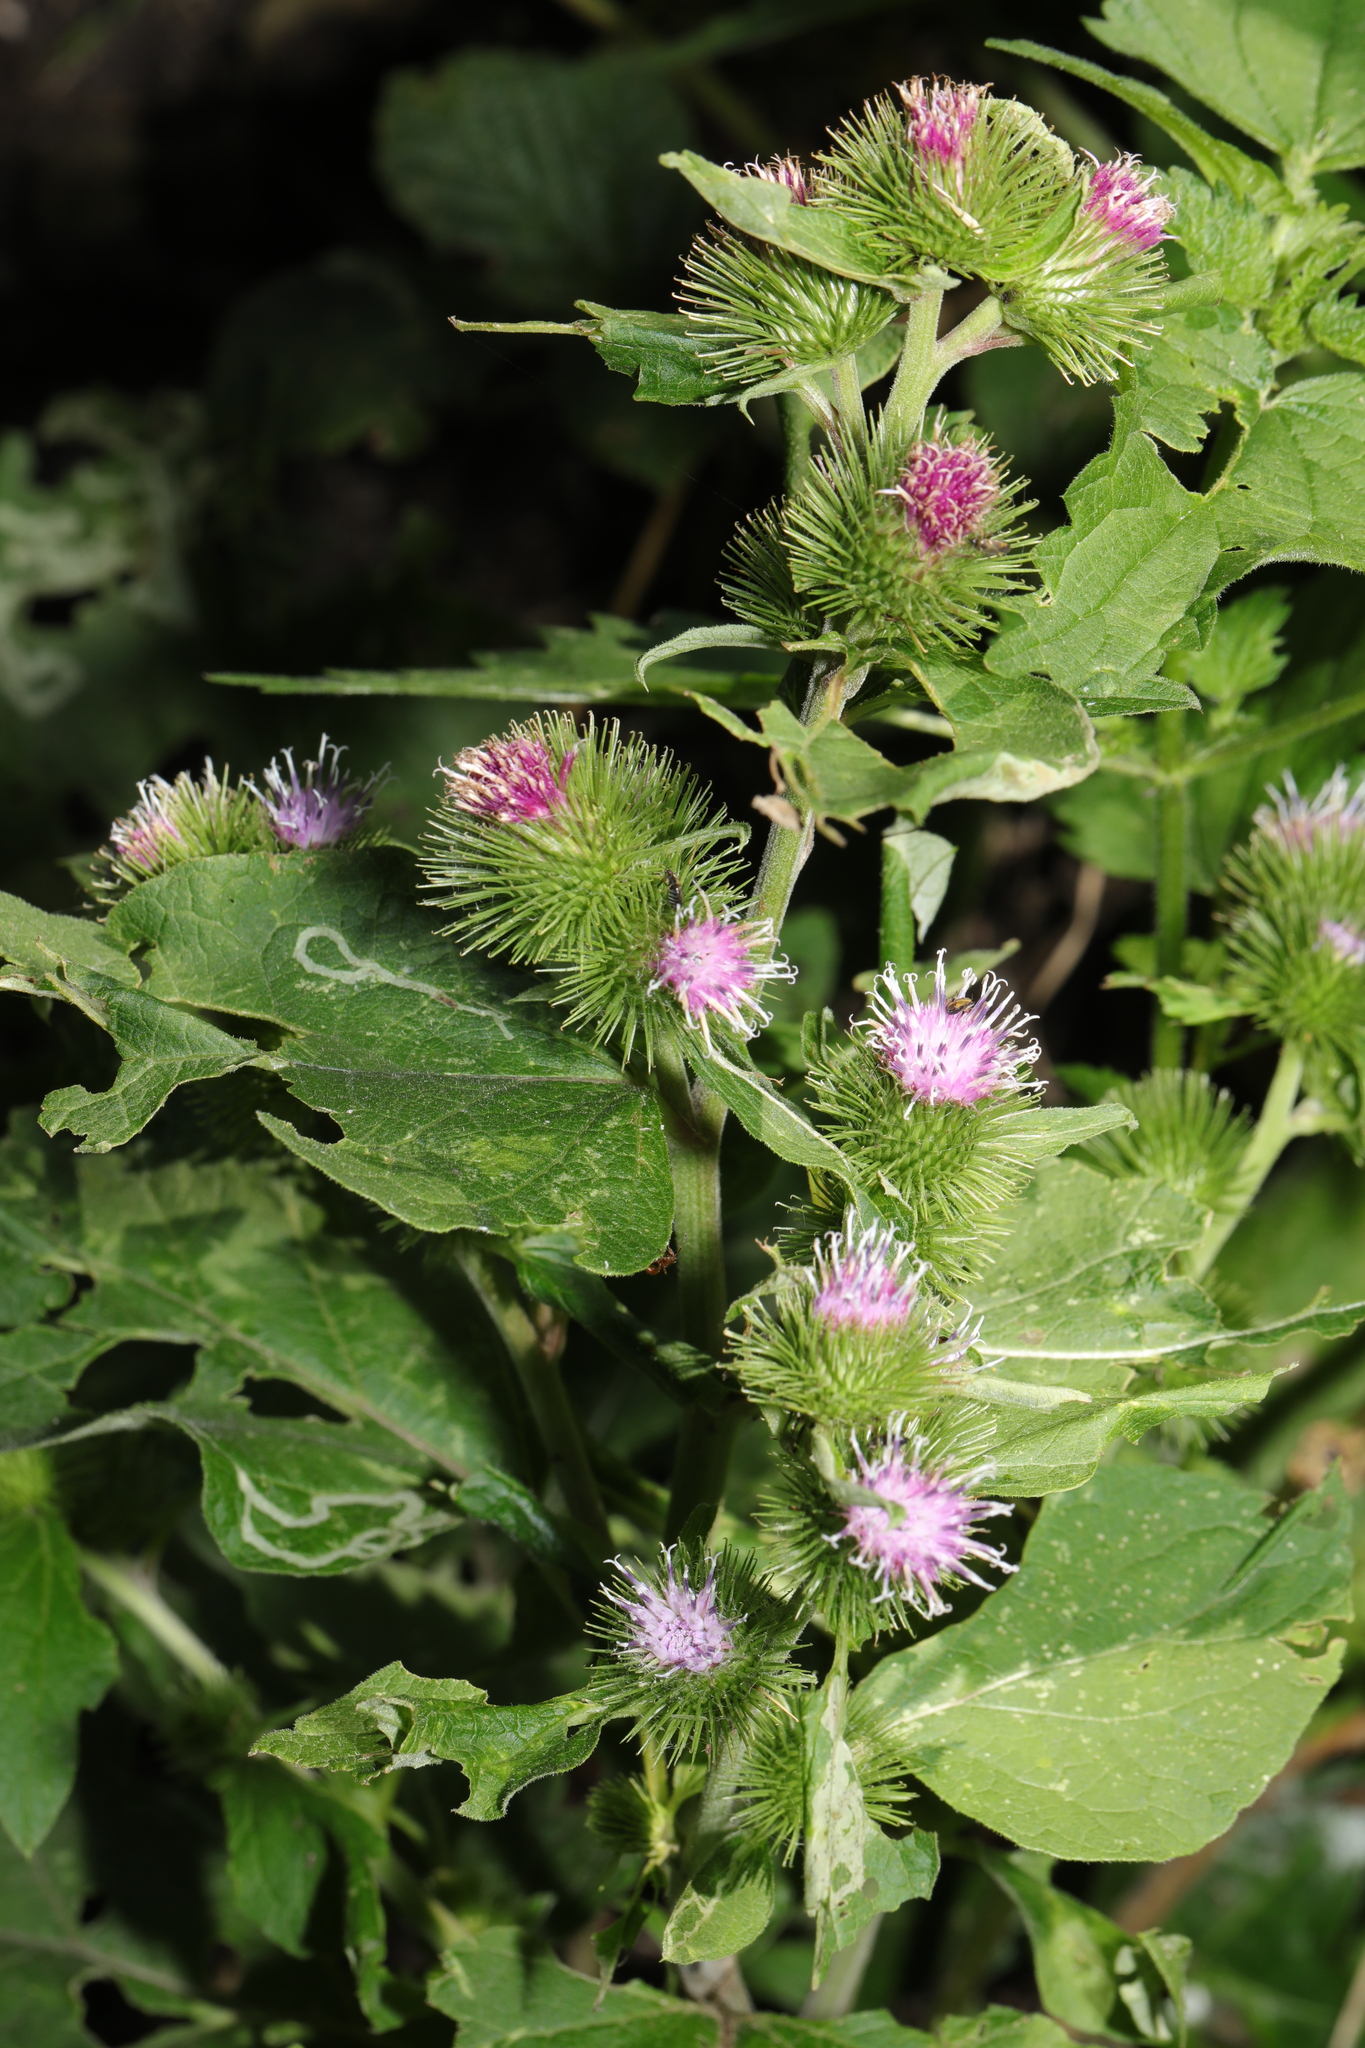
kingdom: Plantae
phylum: Tracheophyta
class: Magnoliopsida
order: Asterales
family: Asteraceae
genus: Arctium
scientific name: Arctium minus
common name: Lesser burdock
